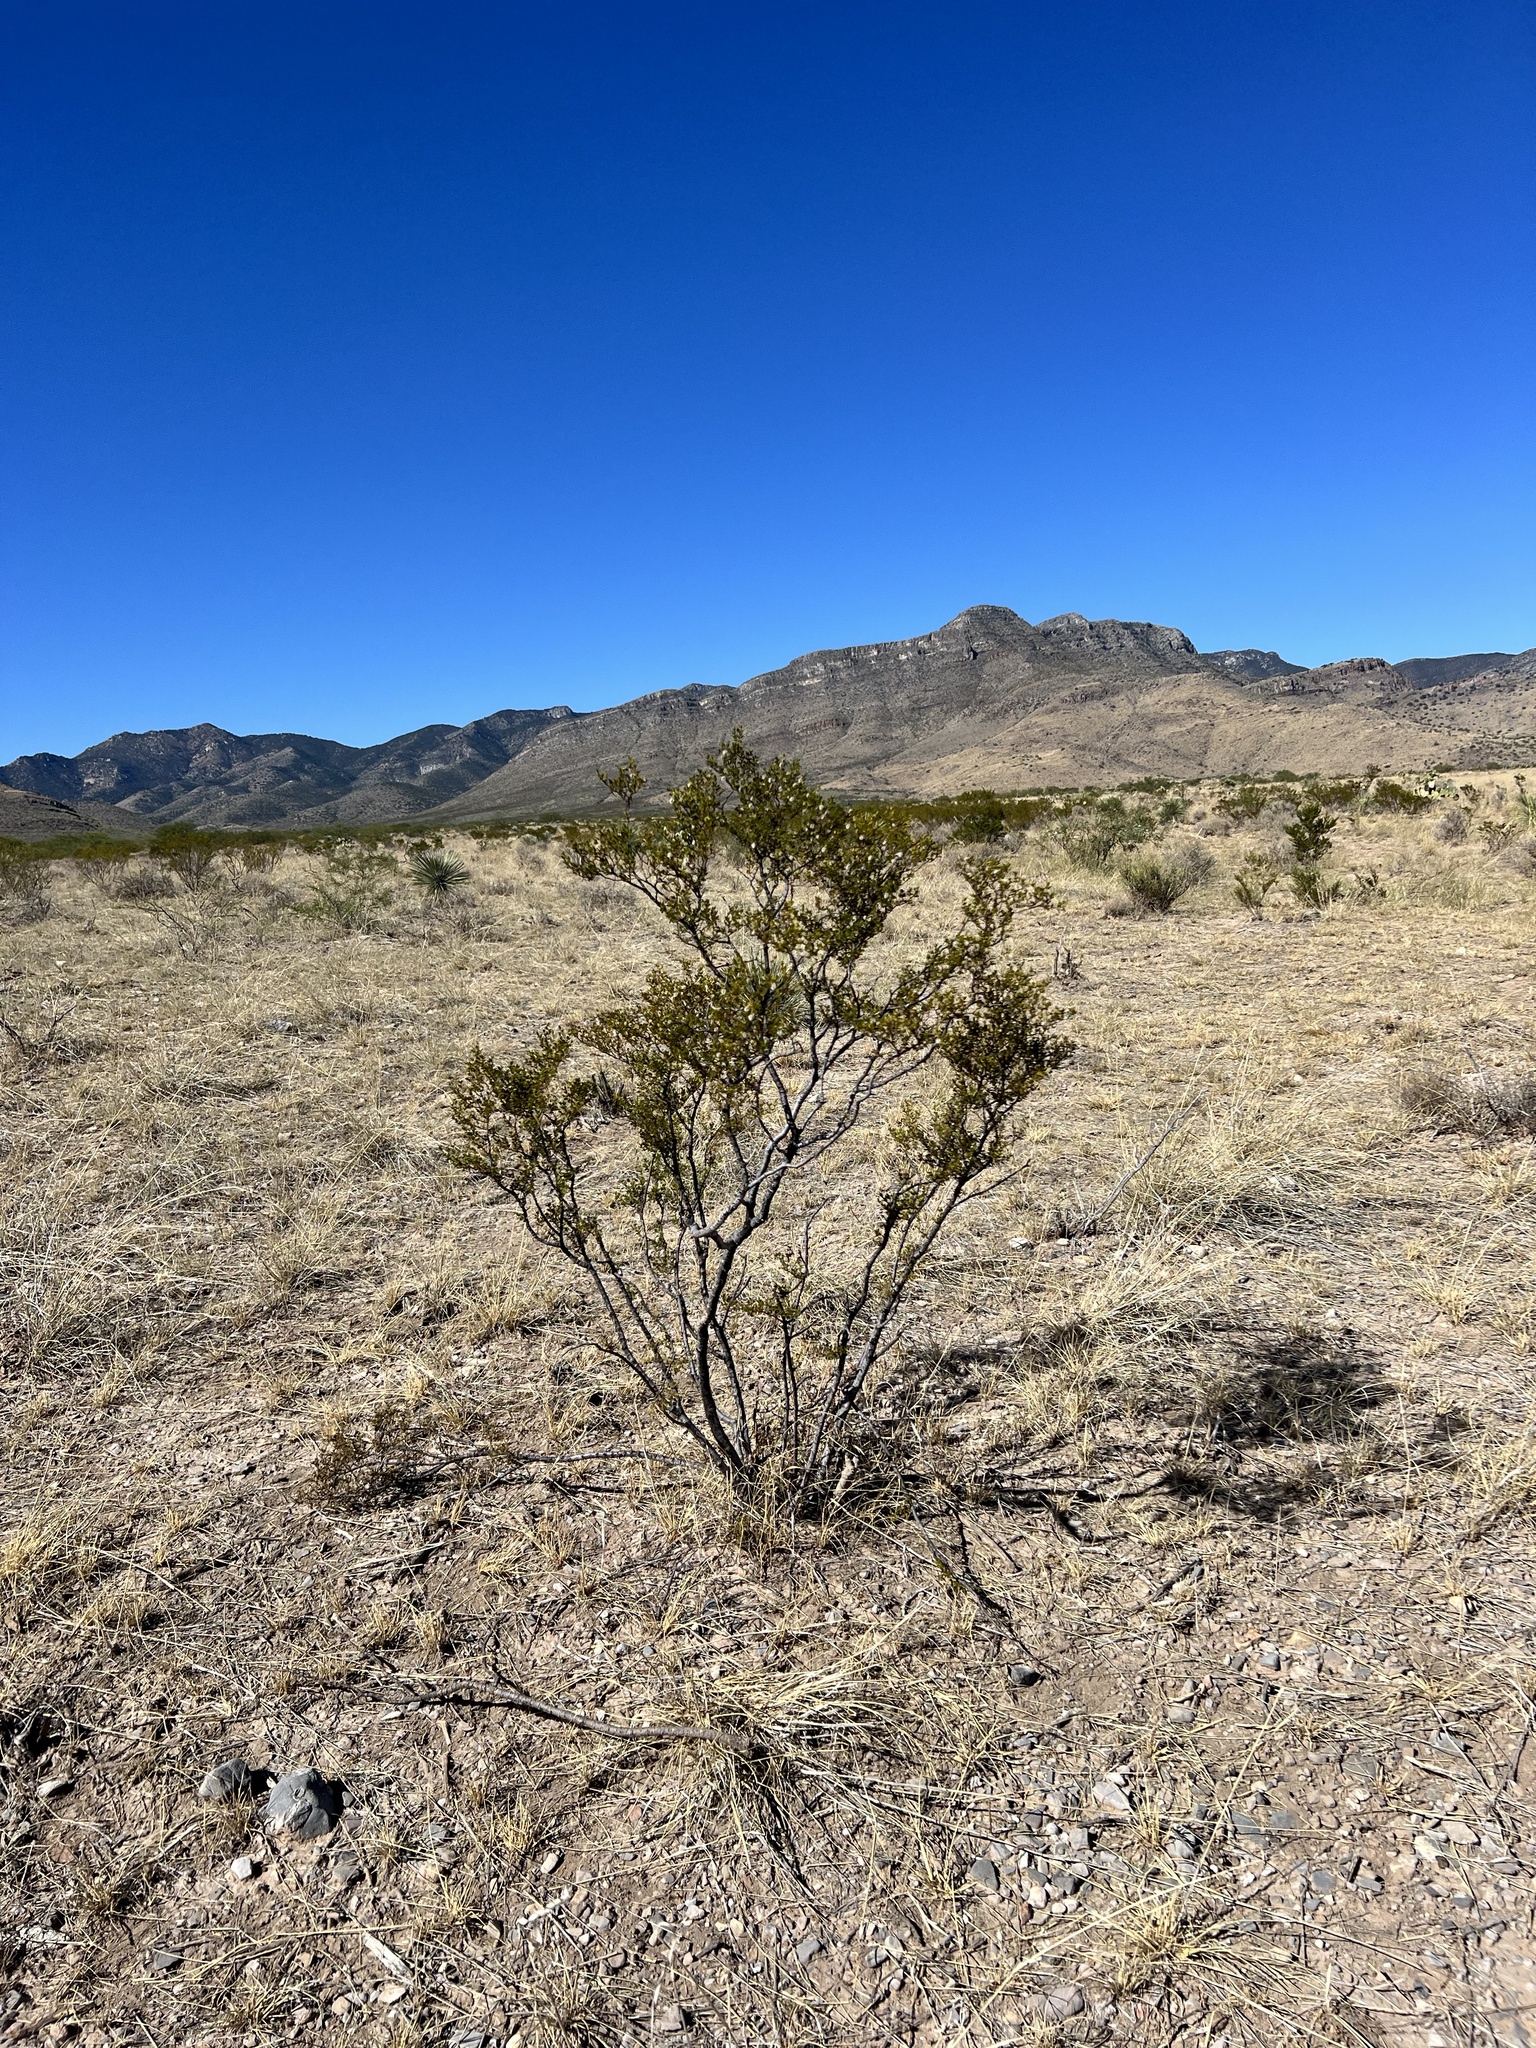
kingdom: Plantae
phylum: Tracheophyta
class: Magnoliopsida
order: Zygophyllales
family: Zygophyllaceae
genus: Larrea
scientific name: Larrea tridentata
